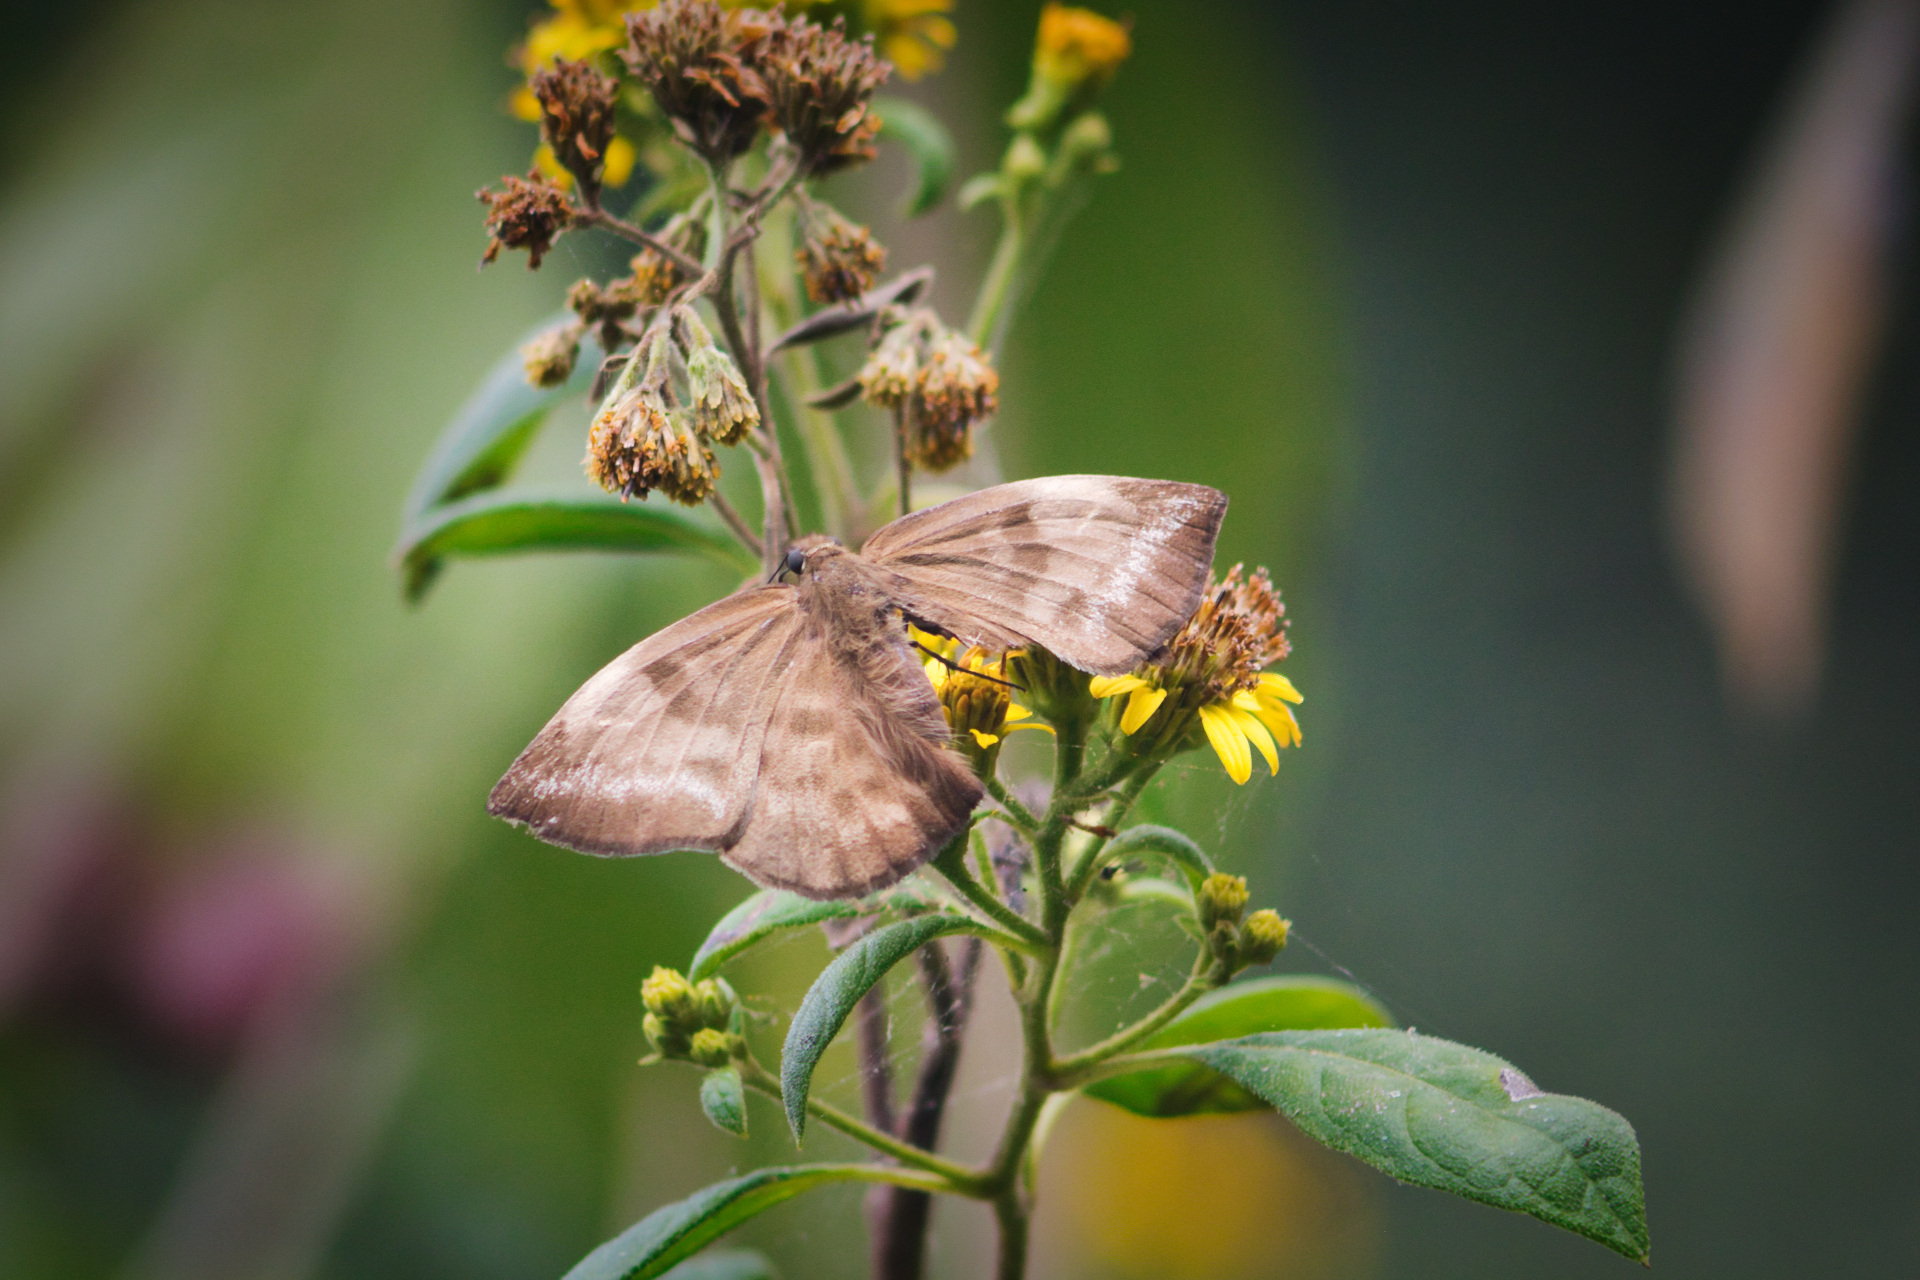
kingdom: Animalia
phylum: Arthropoda
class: Insecta
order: Lepidoptera
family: Hesperiidae
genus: Achlyodes
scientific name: Achlyodes pallida
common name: Pale sicklewing
